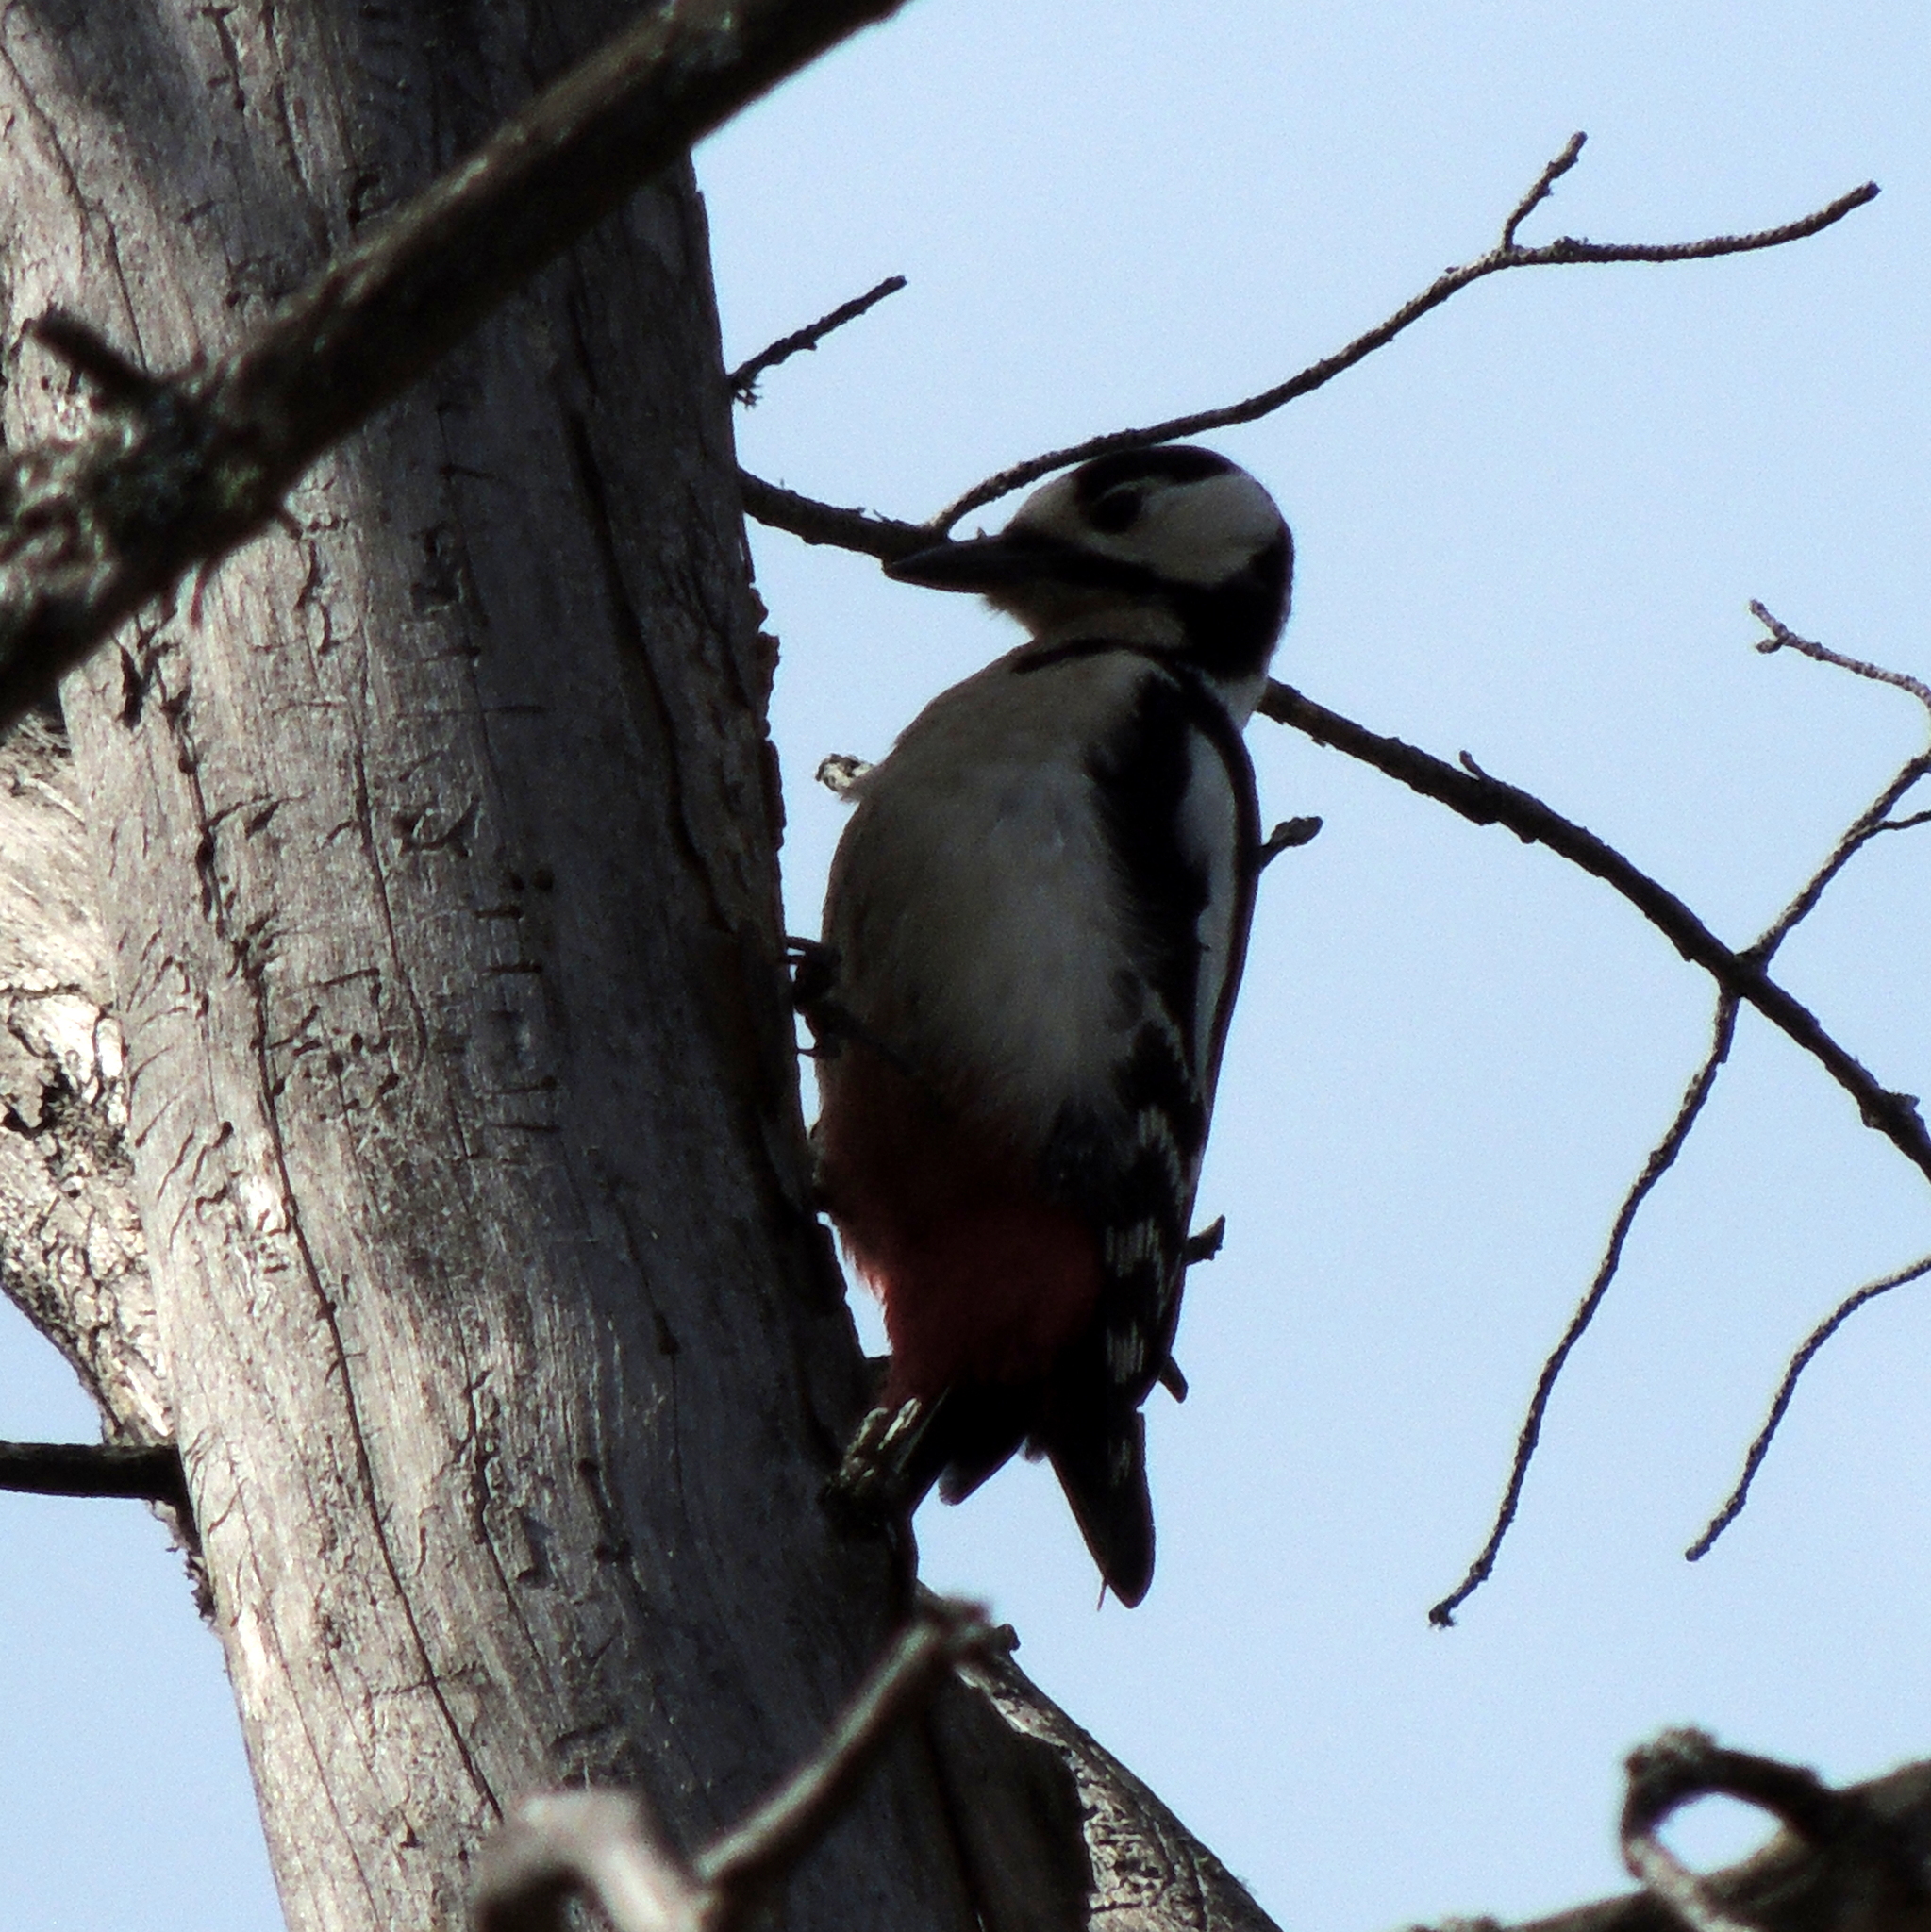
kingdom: Animalia
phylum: Chordata
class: Aves
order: Piciformes
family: Picidae
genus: Dendrocopos
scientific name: Dendrocopos major
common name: Great spotted woodpecker
